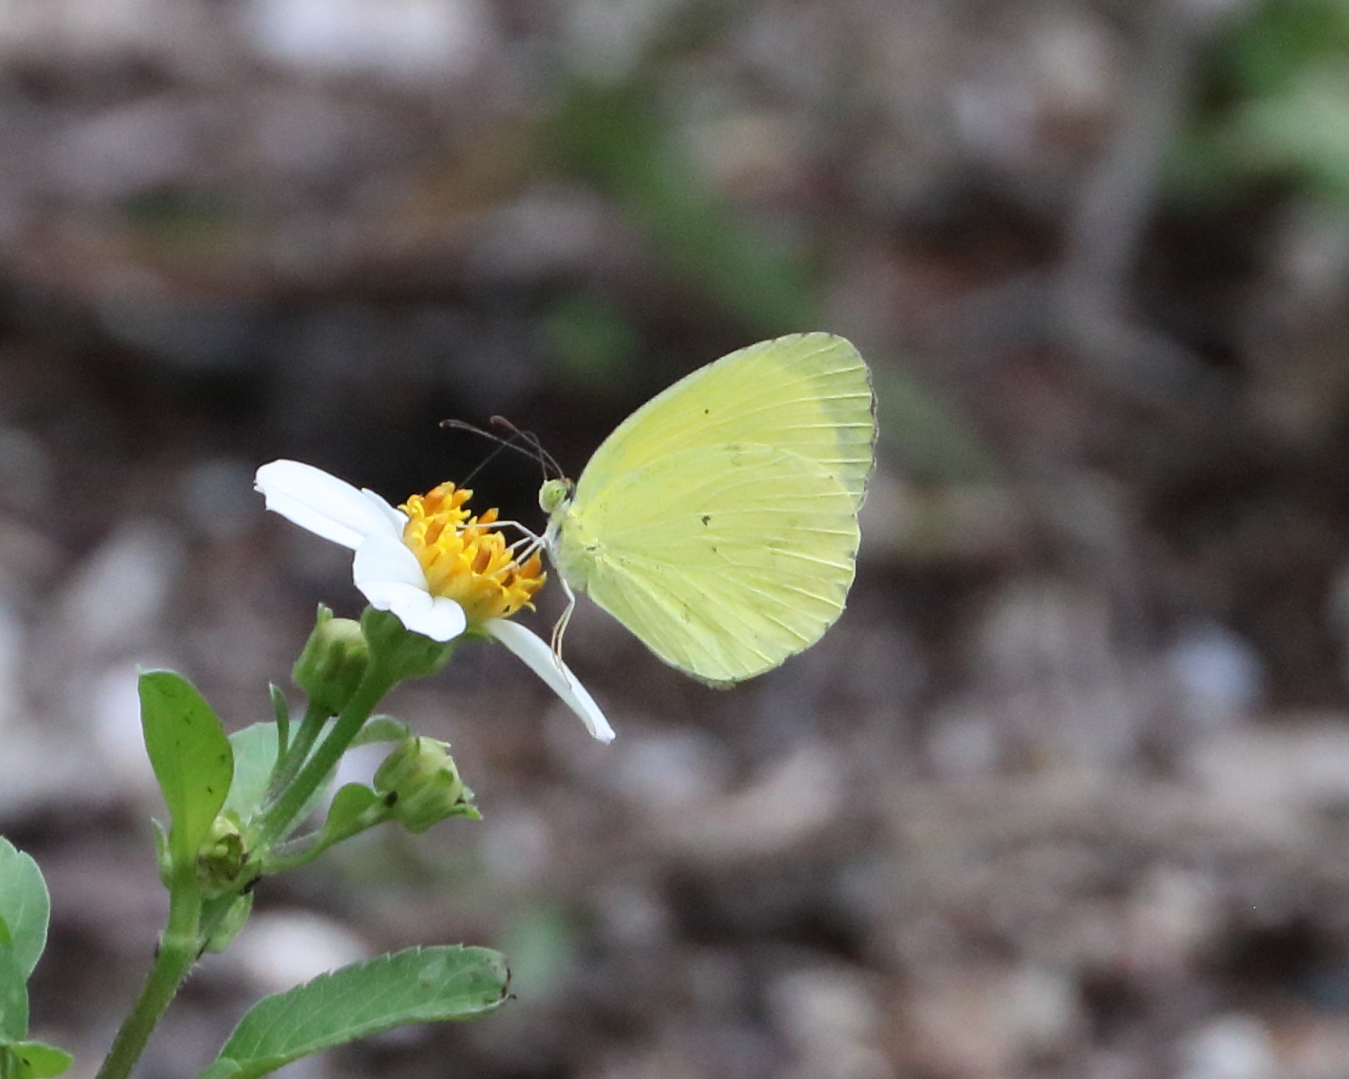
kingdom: Animalia
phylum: Arthropoda
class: Insecta
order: Lepidoptera
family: Pieridae
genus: Pyrisitia
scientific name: Pyrisitia nise
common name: Mimosa yellow
